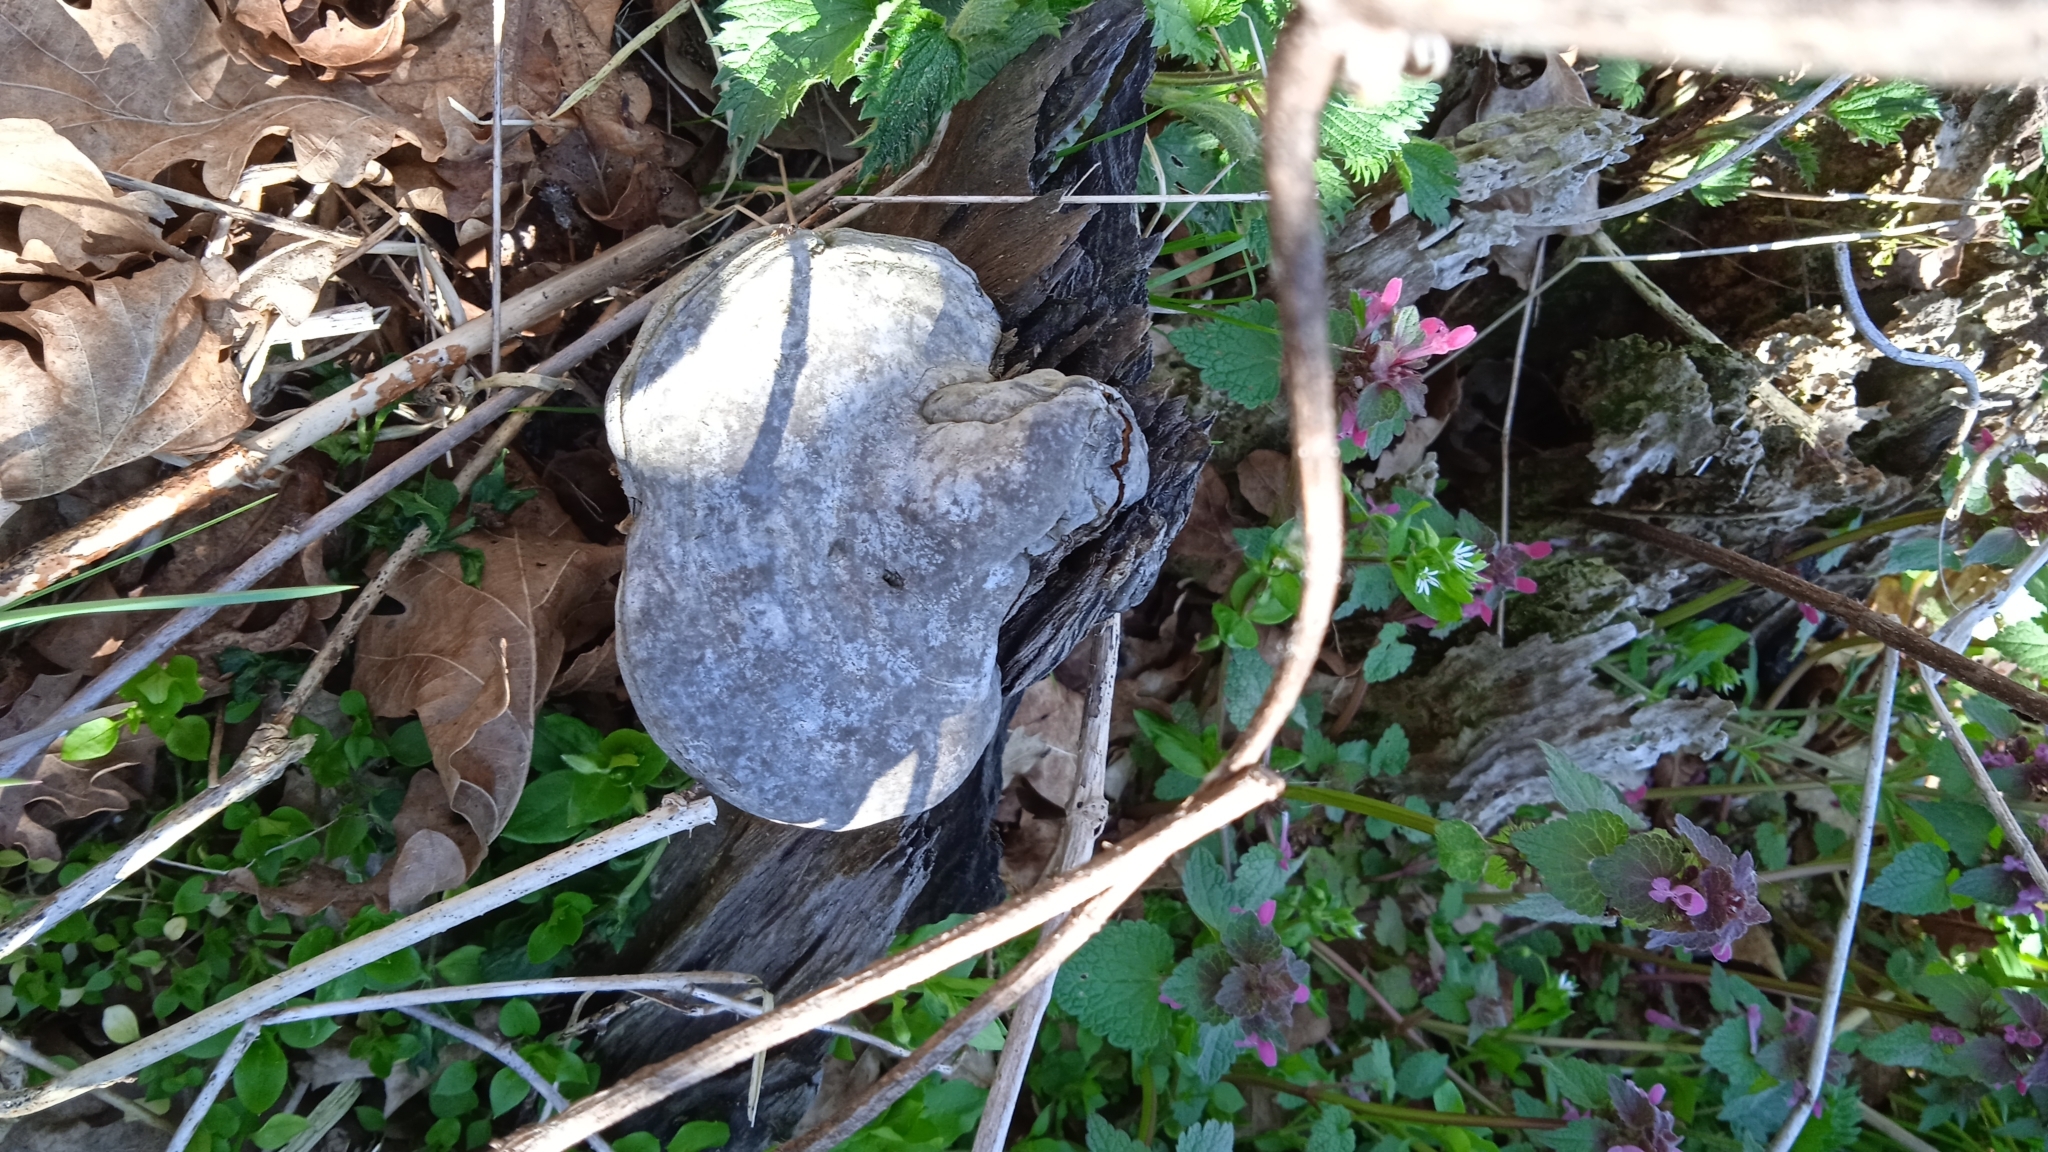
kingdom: Fungi
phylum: Basidiomycota
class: Agaricomycetes
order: Polyporales
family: Polyporaceae
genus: Fomes
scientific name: Fomes fomentarius
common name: Hoof fungus
